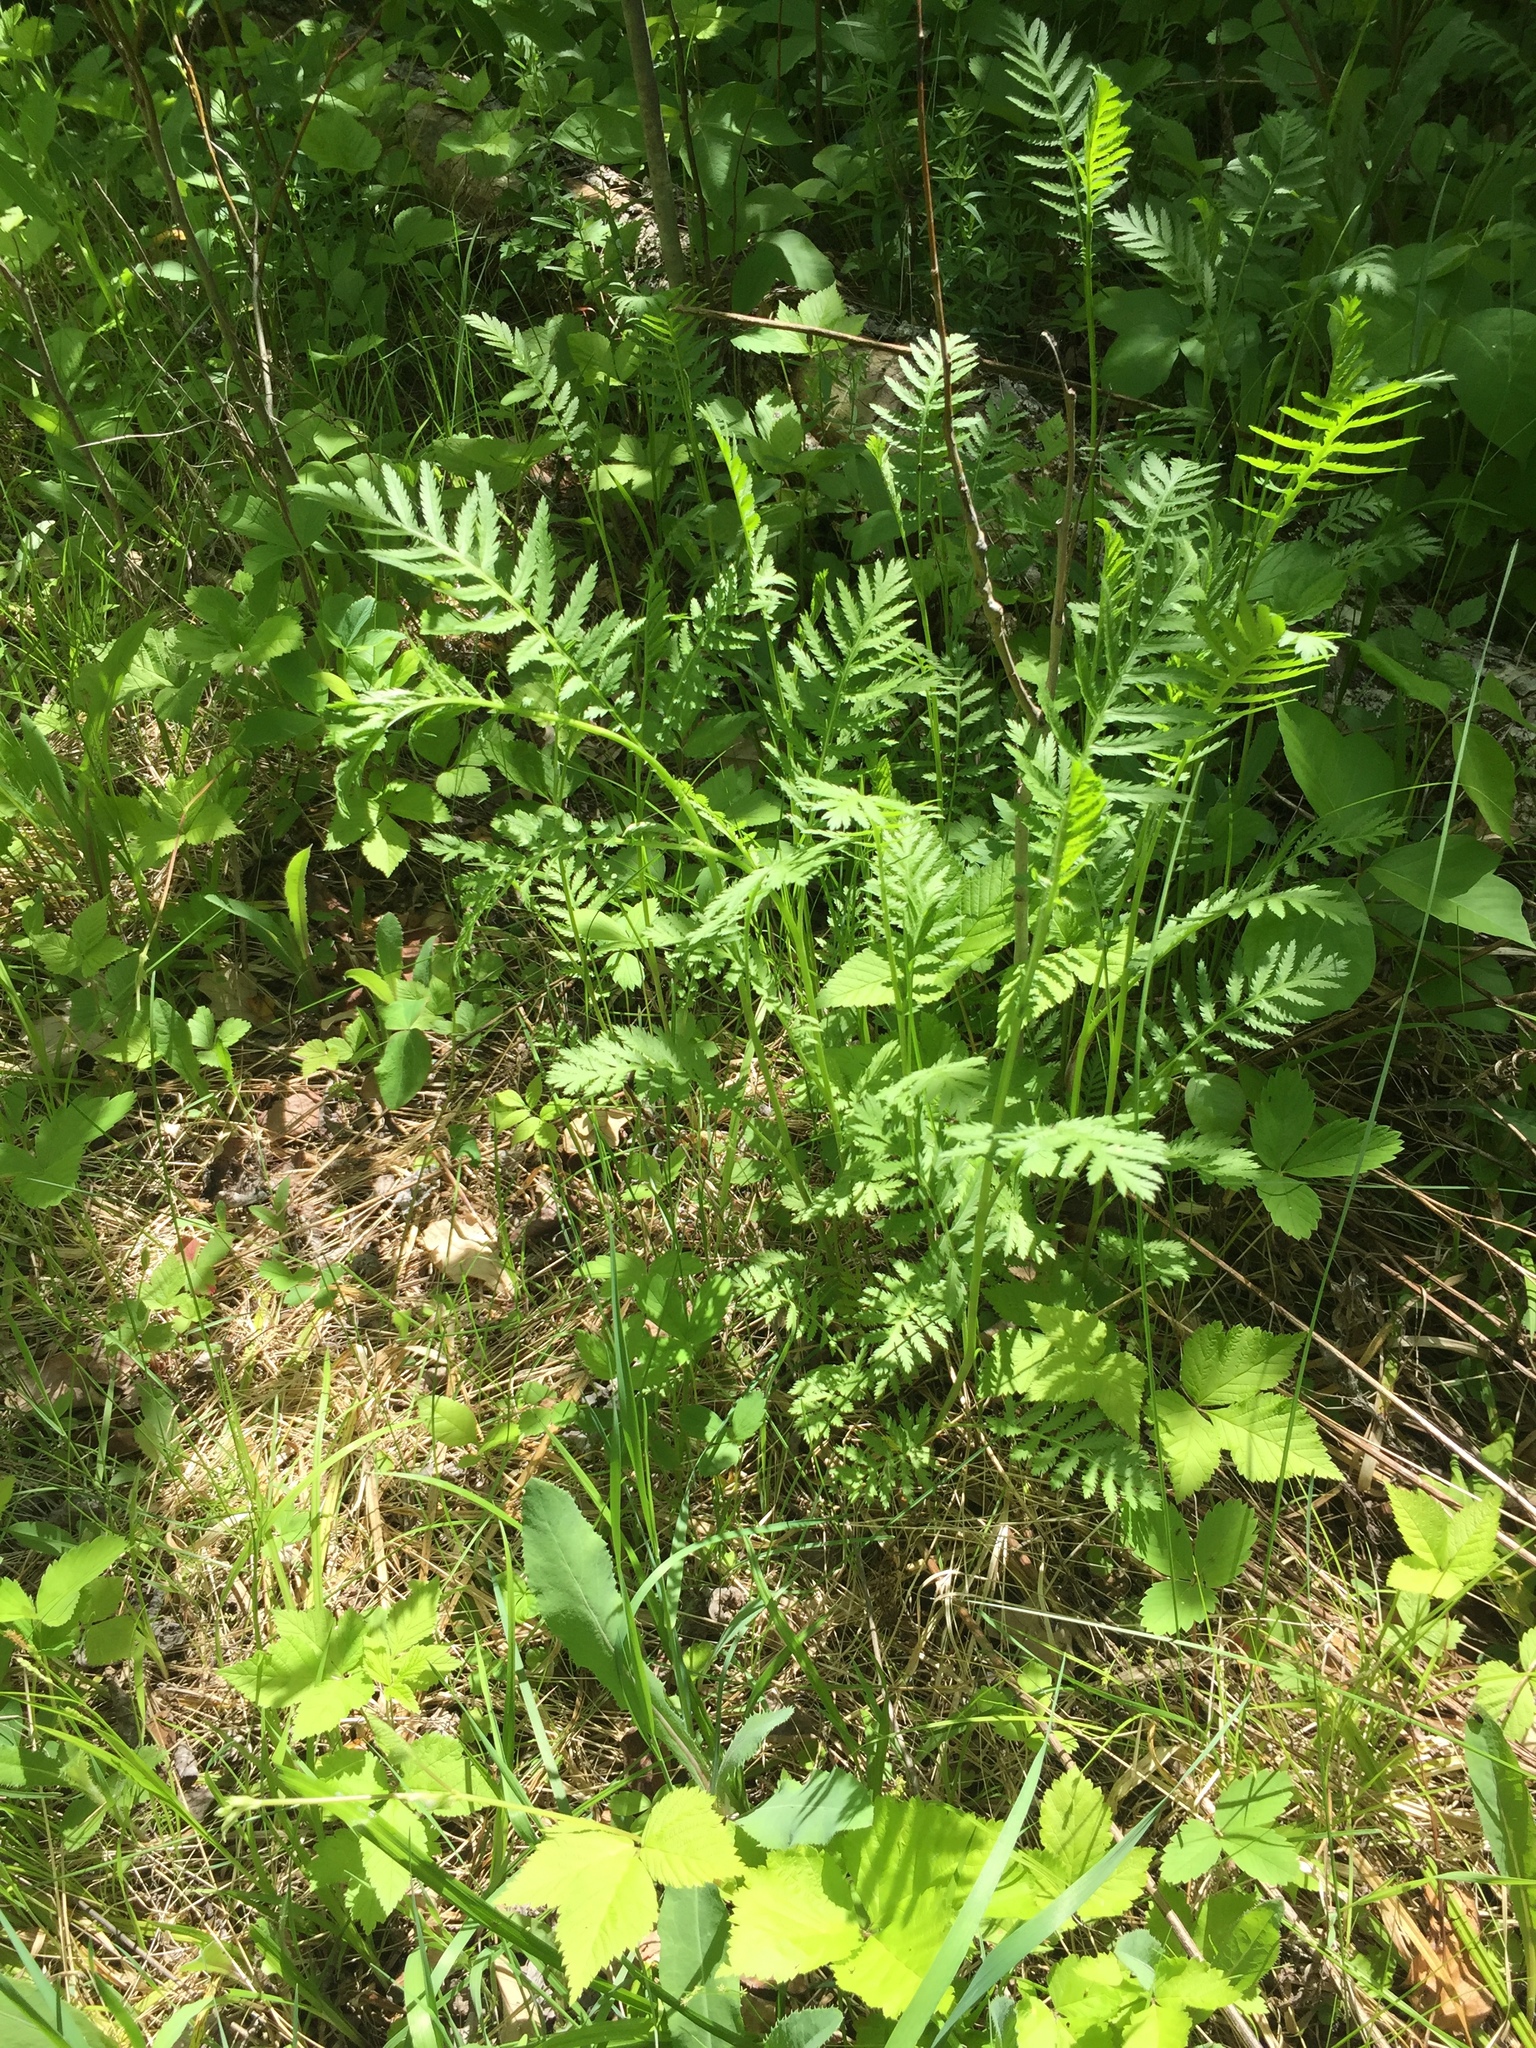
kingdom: Plantae
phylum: Tracheophyta
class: Magnoliopsida
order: Asterales
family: Asteraceae
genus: Tanacetum
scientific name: Tanacetum vulgare
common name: Common tansy
